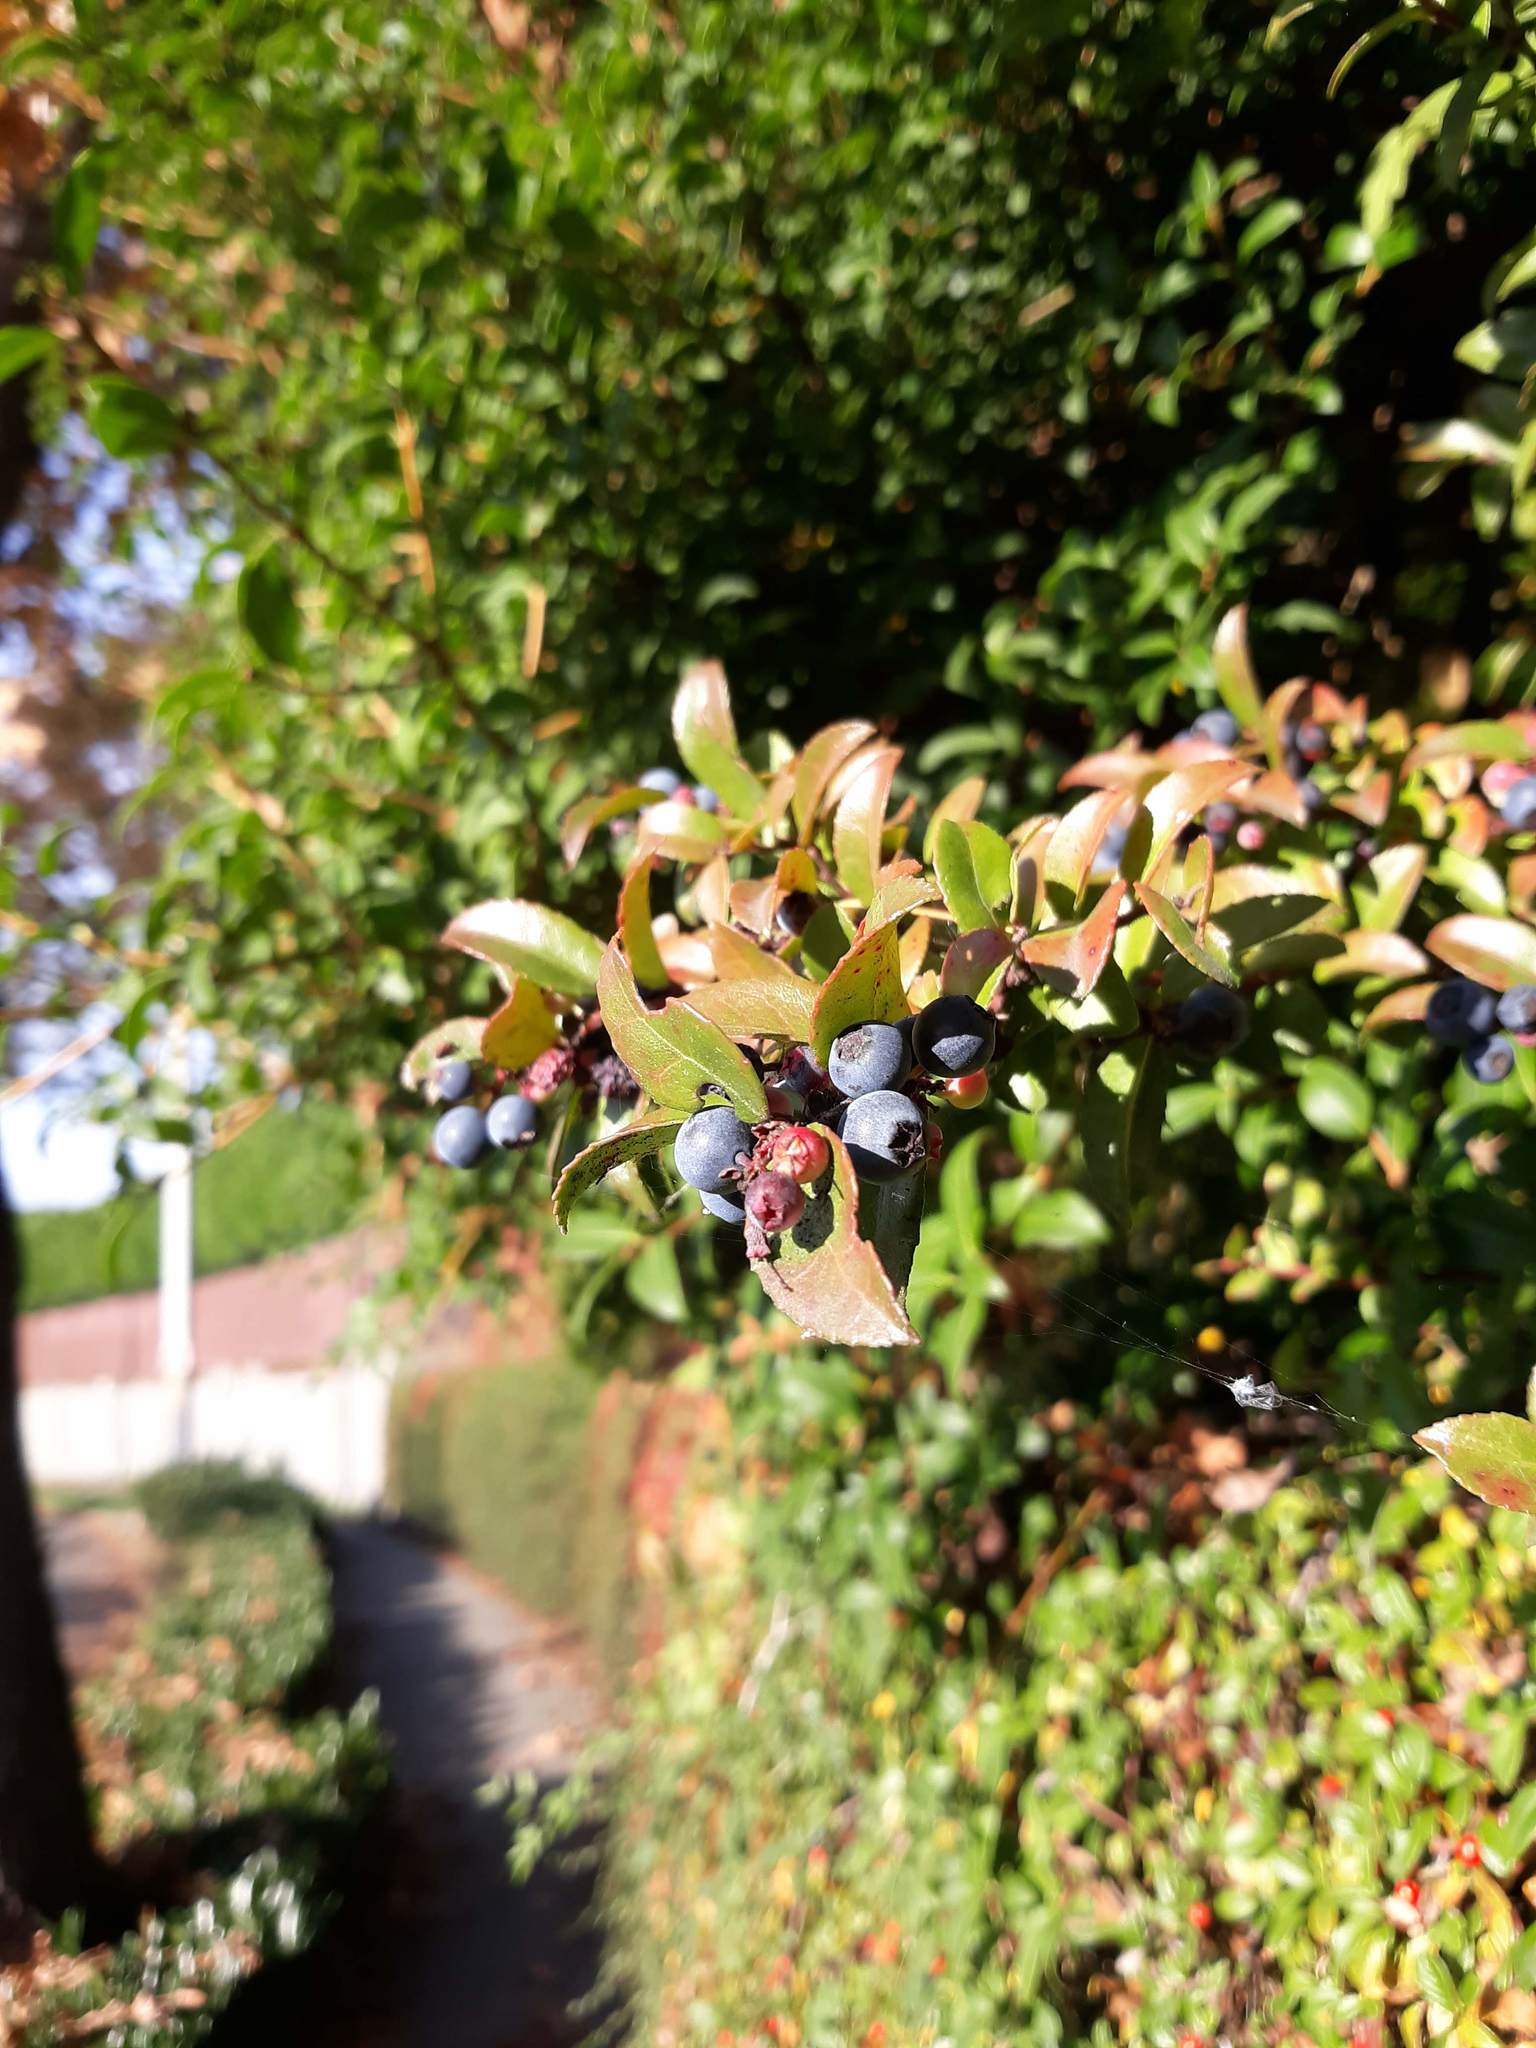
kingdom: Plantae
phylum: Tracheophyta
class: Magnoliopsida
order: Ericales
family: Ericaceae
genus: Vaccinium
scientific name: Vaccinium ovatum
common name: California-huckleberry
